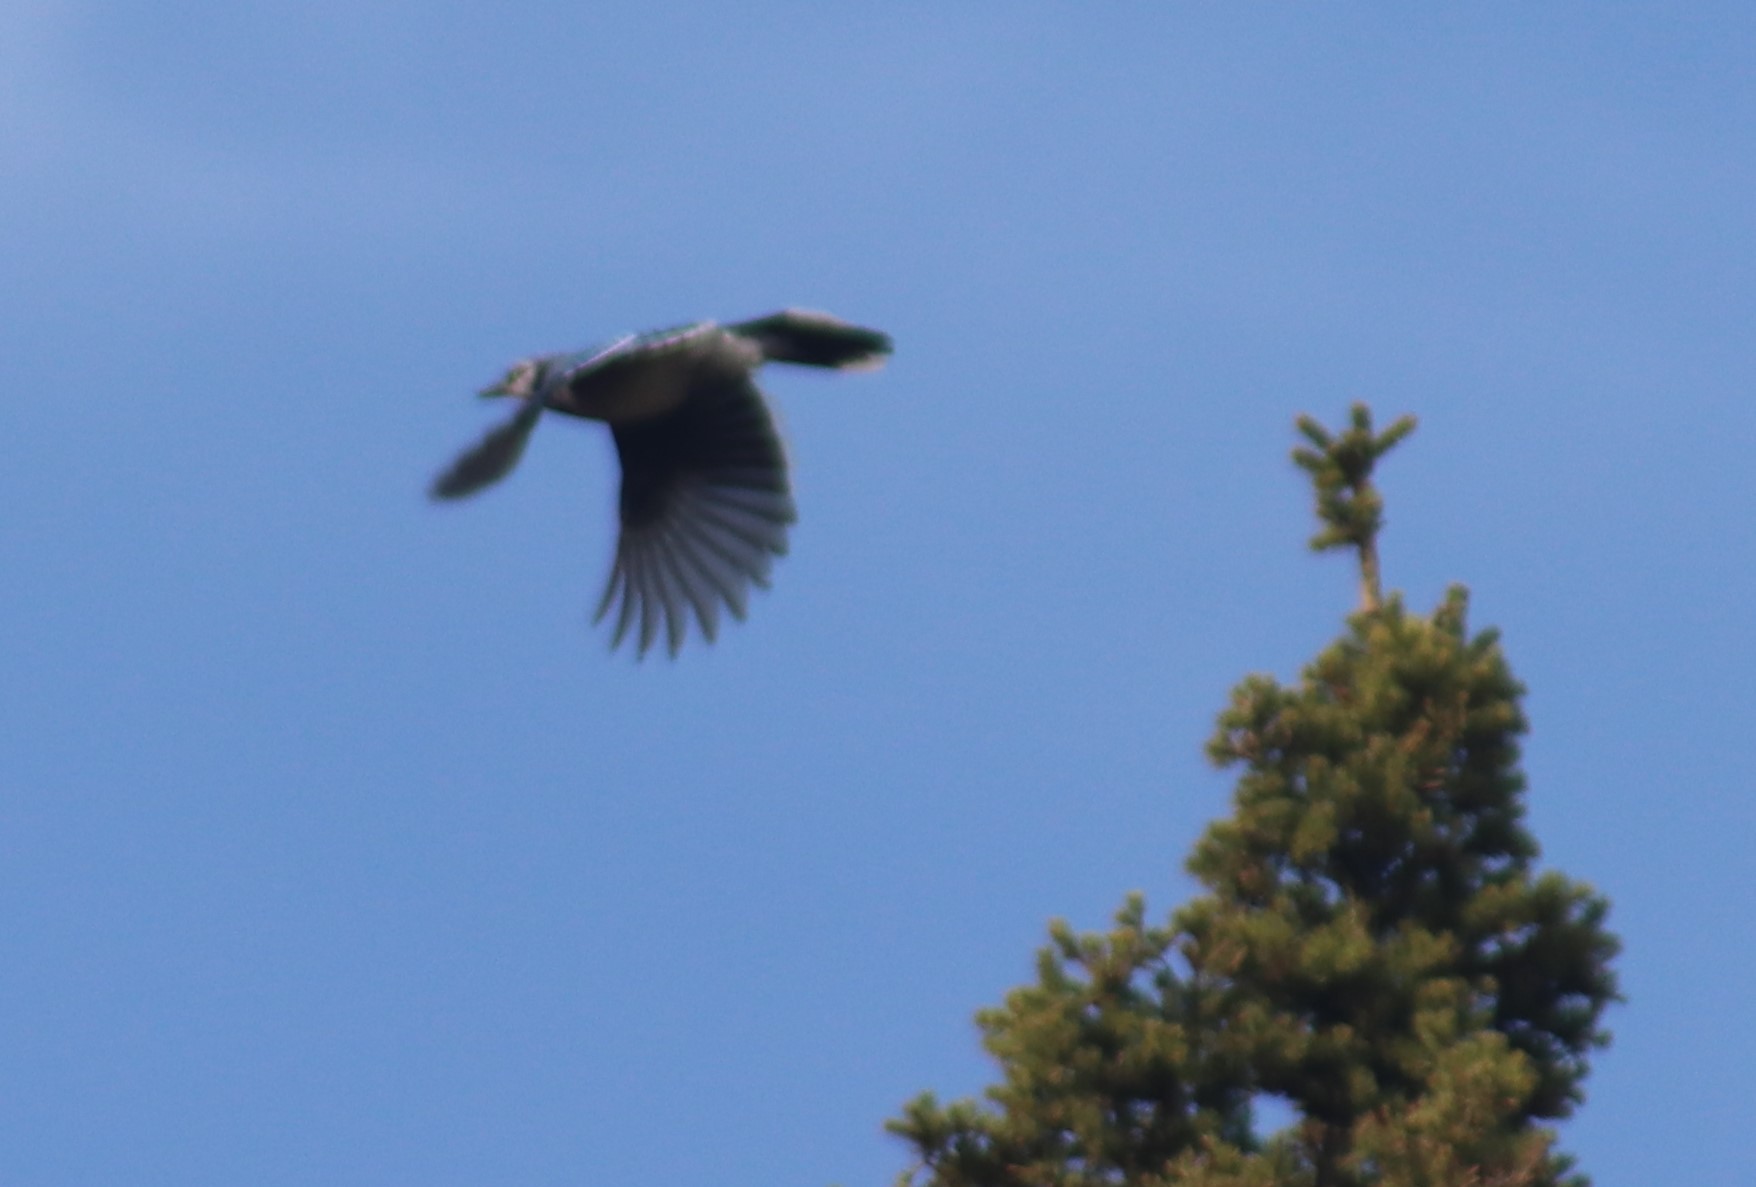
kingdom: Animalia
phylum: Chordata
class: Aves
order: Passeriformes
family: Corvidae
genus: Cyanocitta
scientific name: Cyanocitta cristata
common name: Blue jay
